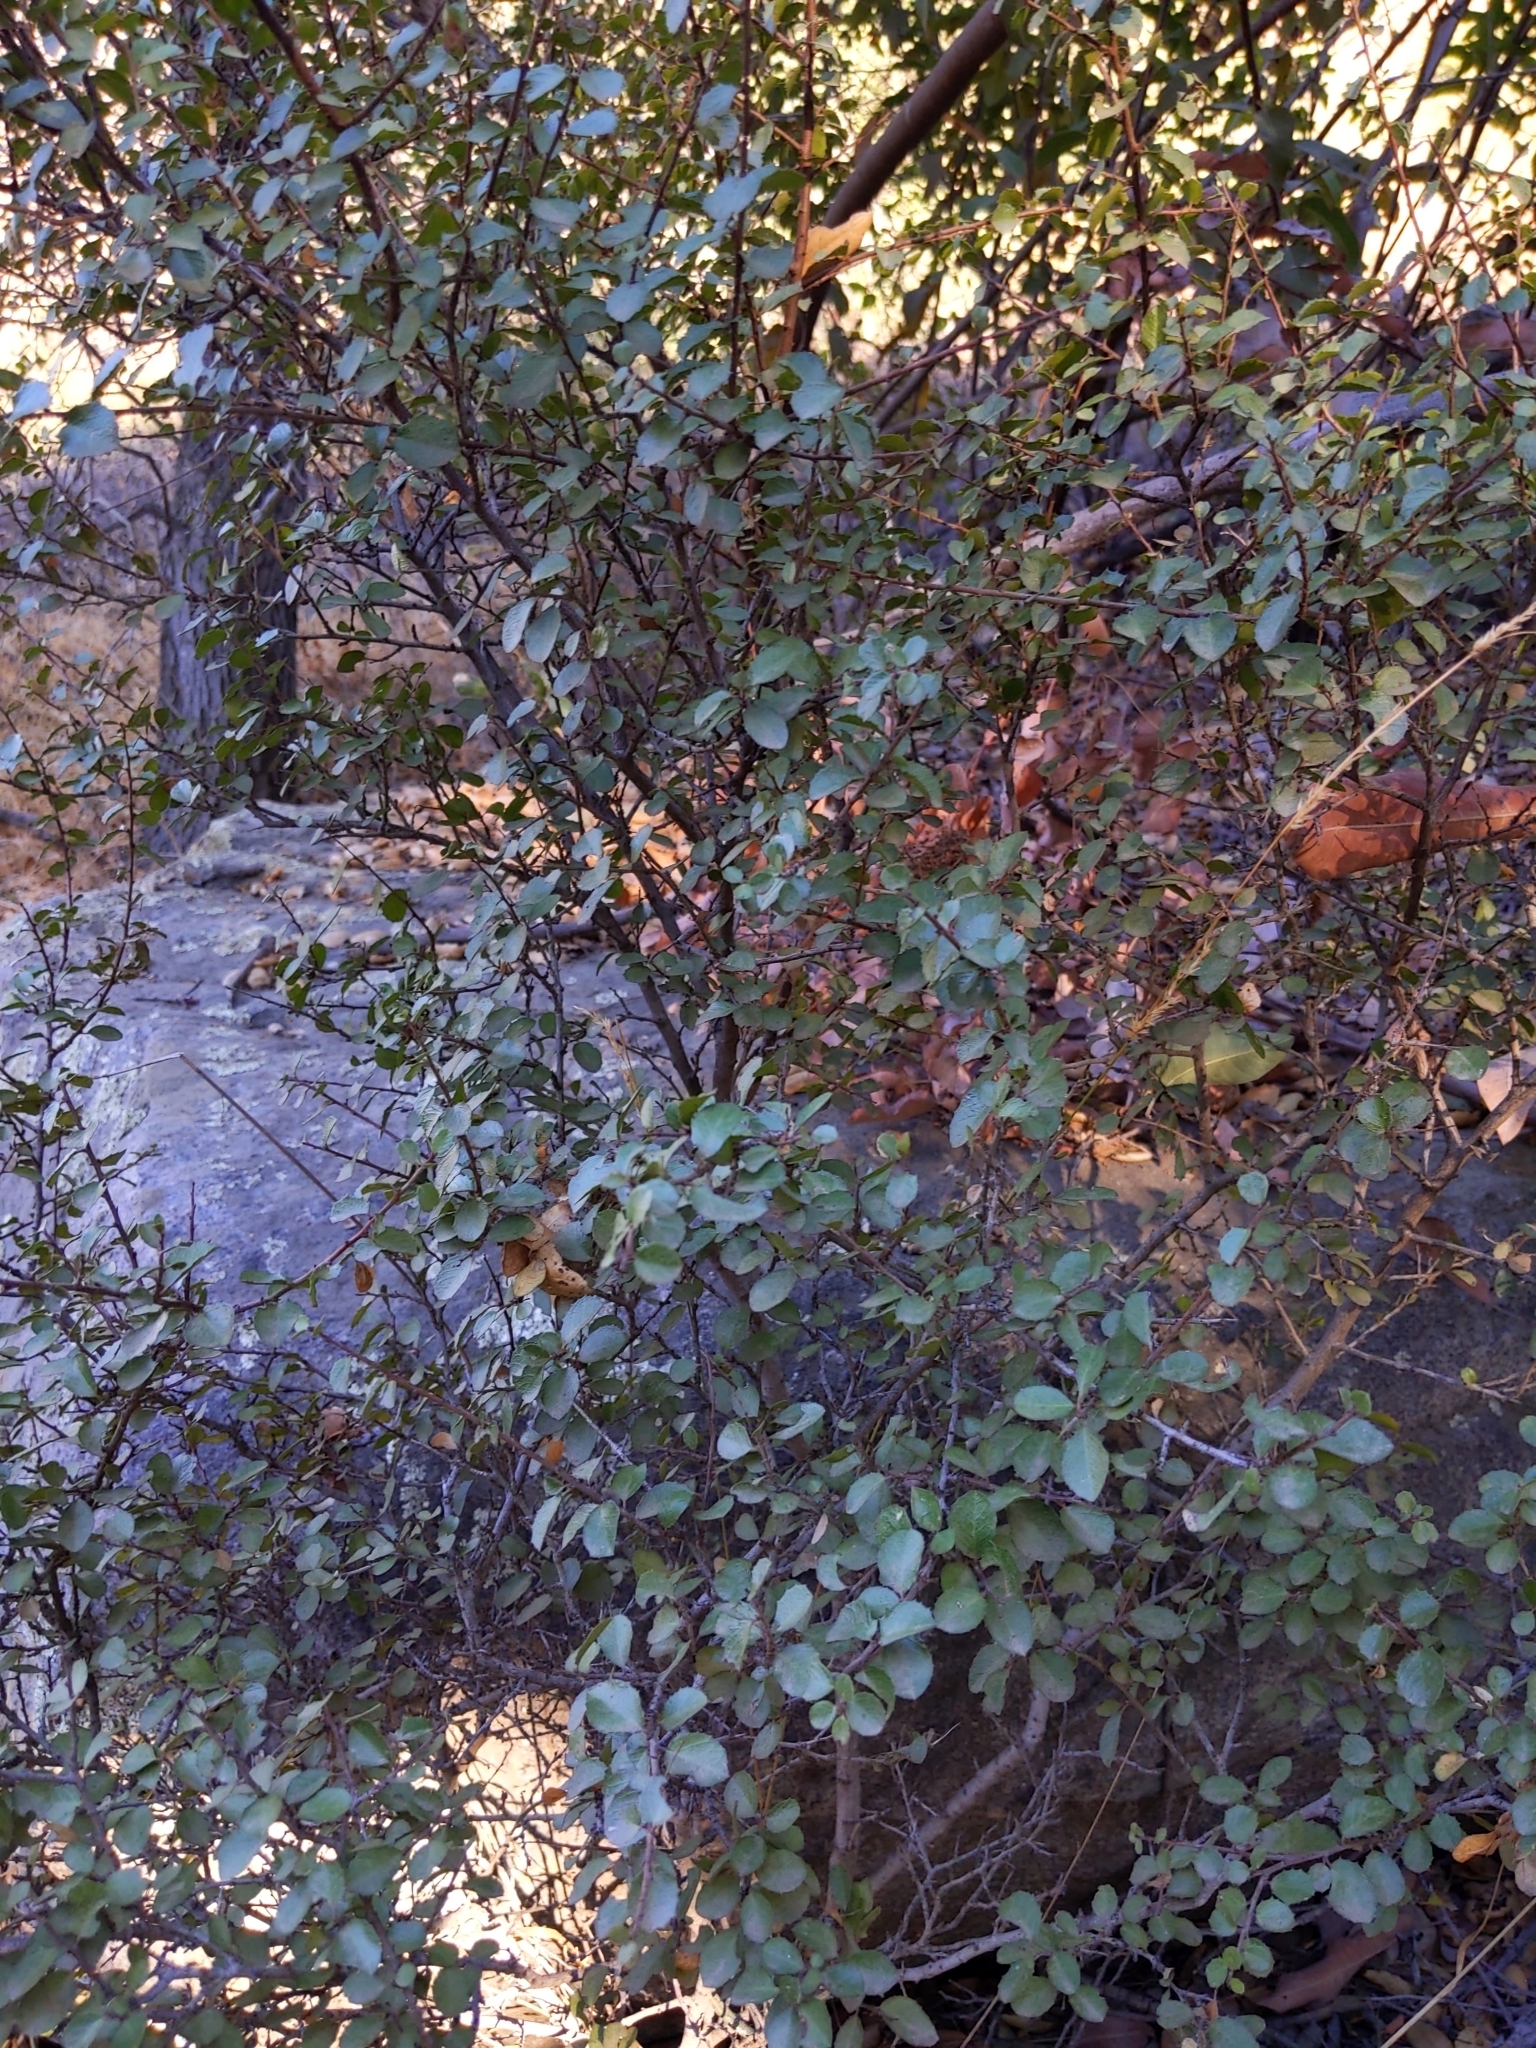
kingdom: Plantae
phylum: Tracheophyta
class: Magnoliopsida
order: Rosales
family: Rhamnaceae
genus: Endotropis
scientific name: Endotropis crocea
